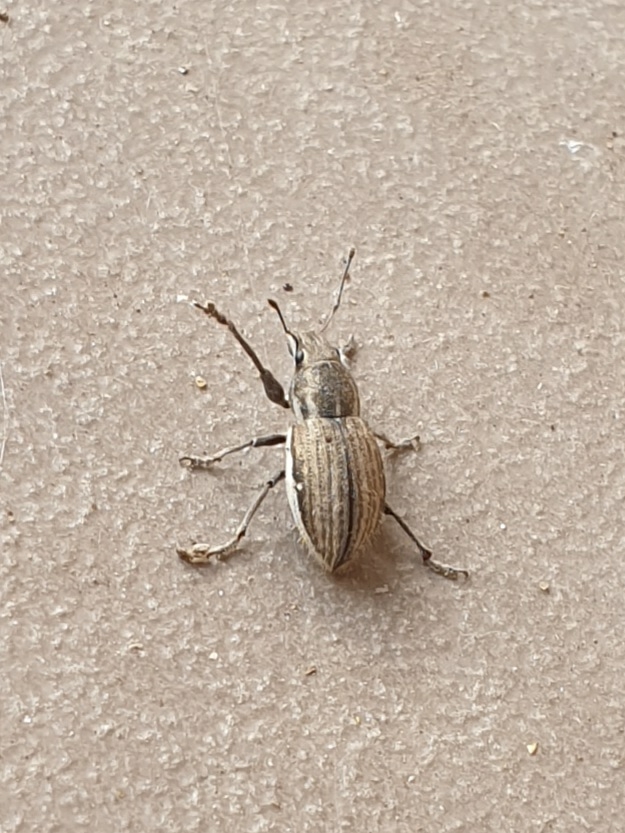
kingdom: Animalia
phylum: Arthropoda
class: Insecta
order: Coleoptera
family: Curculionidae
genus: Naupactus
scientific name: Naupactus leucoloma
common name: Whitefringed beetle
